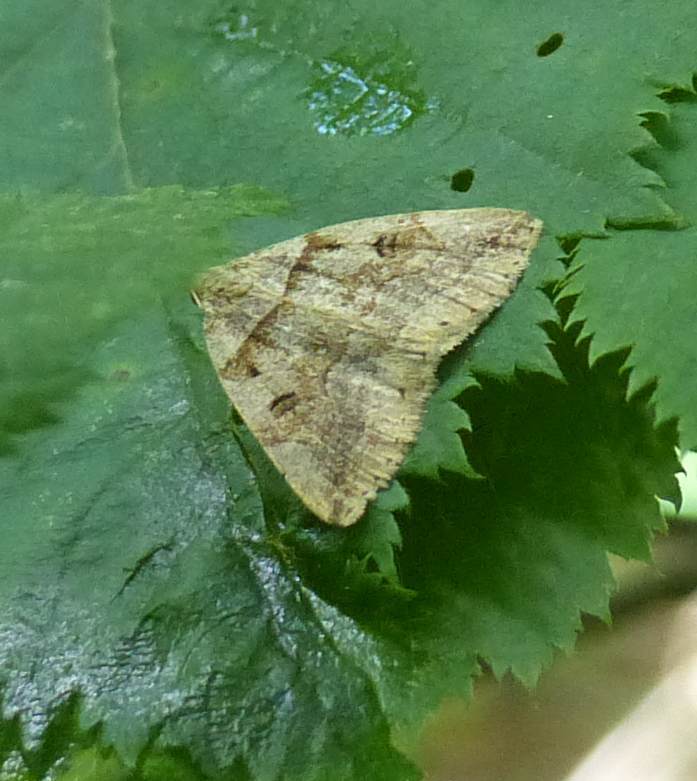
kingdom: Animalia
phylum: Arthropoda
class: Insecta
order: Lepidoptera
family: Erebidae
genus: Zanclognatha
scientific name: Zanclognatha laevigata
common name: Variable fan-foot
